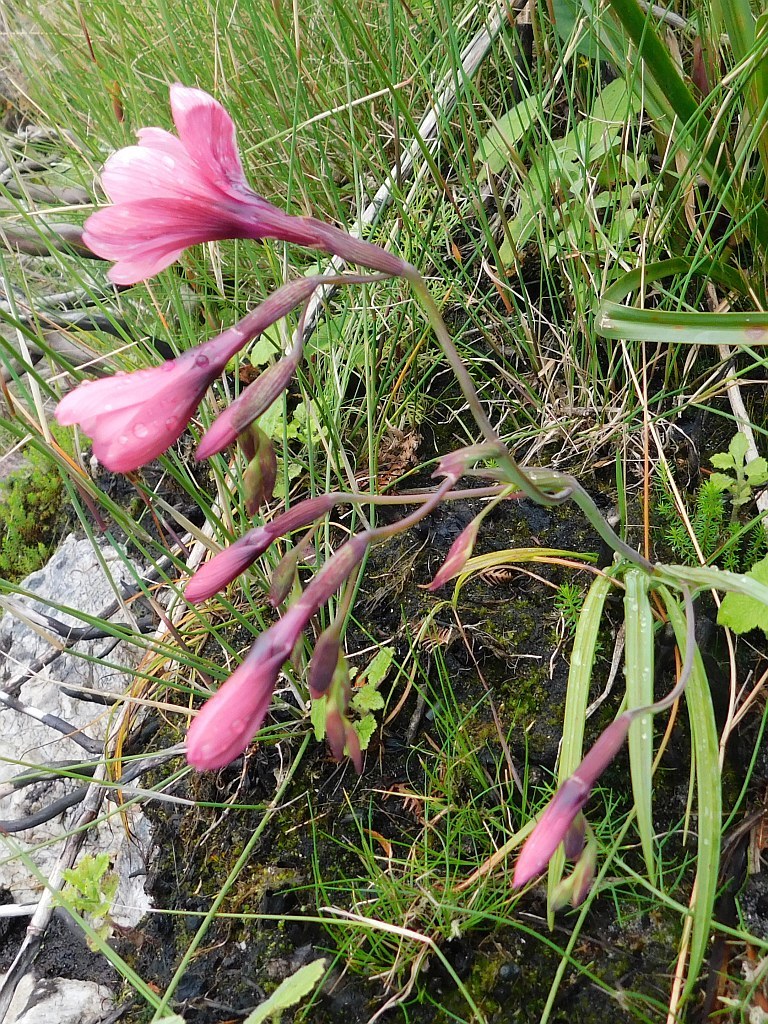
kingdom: Plantae
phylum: Tracheophyta
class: Liliopsida
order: Asparagales
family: Iridaceae
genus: Geissorhiza
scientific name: Geissorhiza callista
